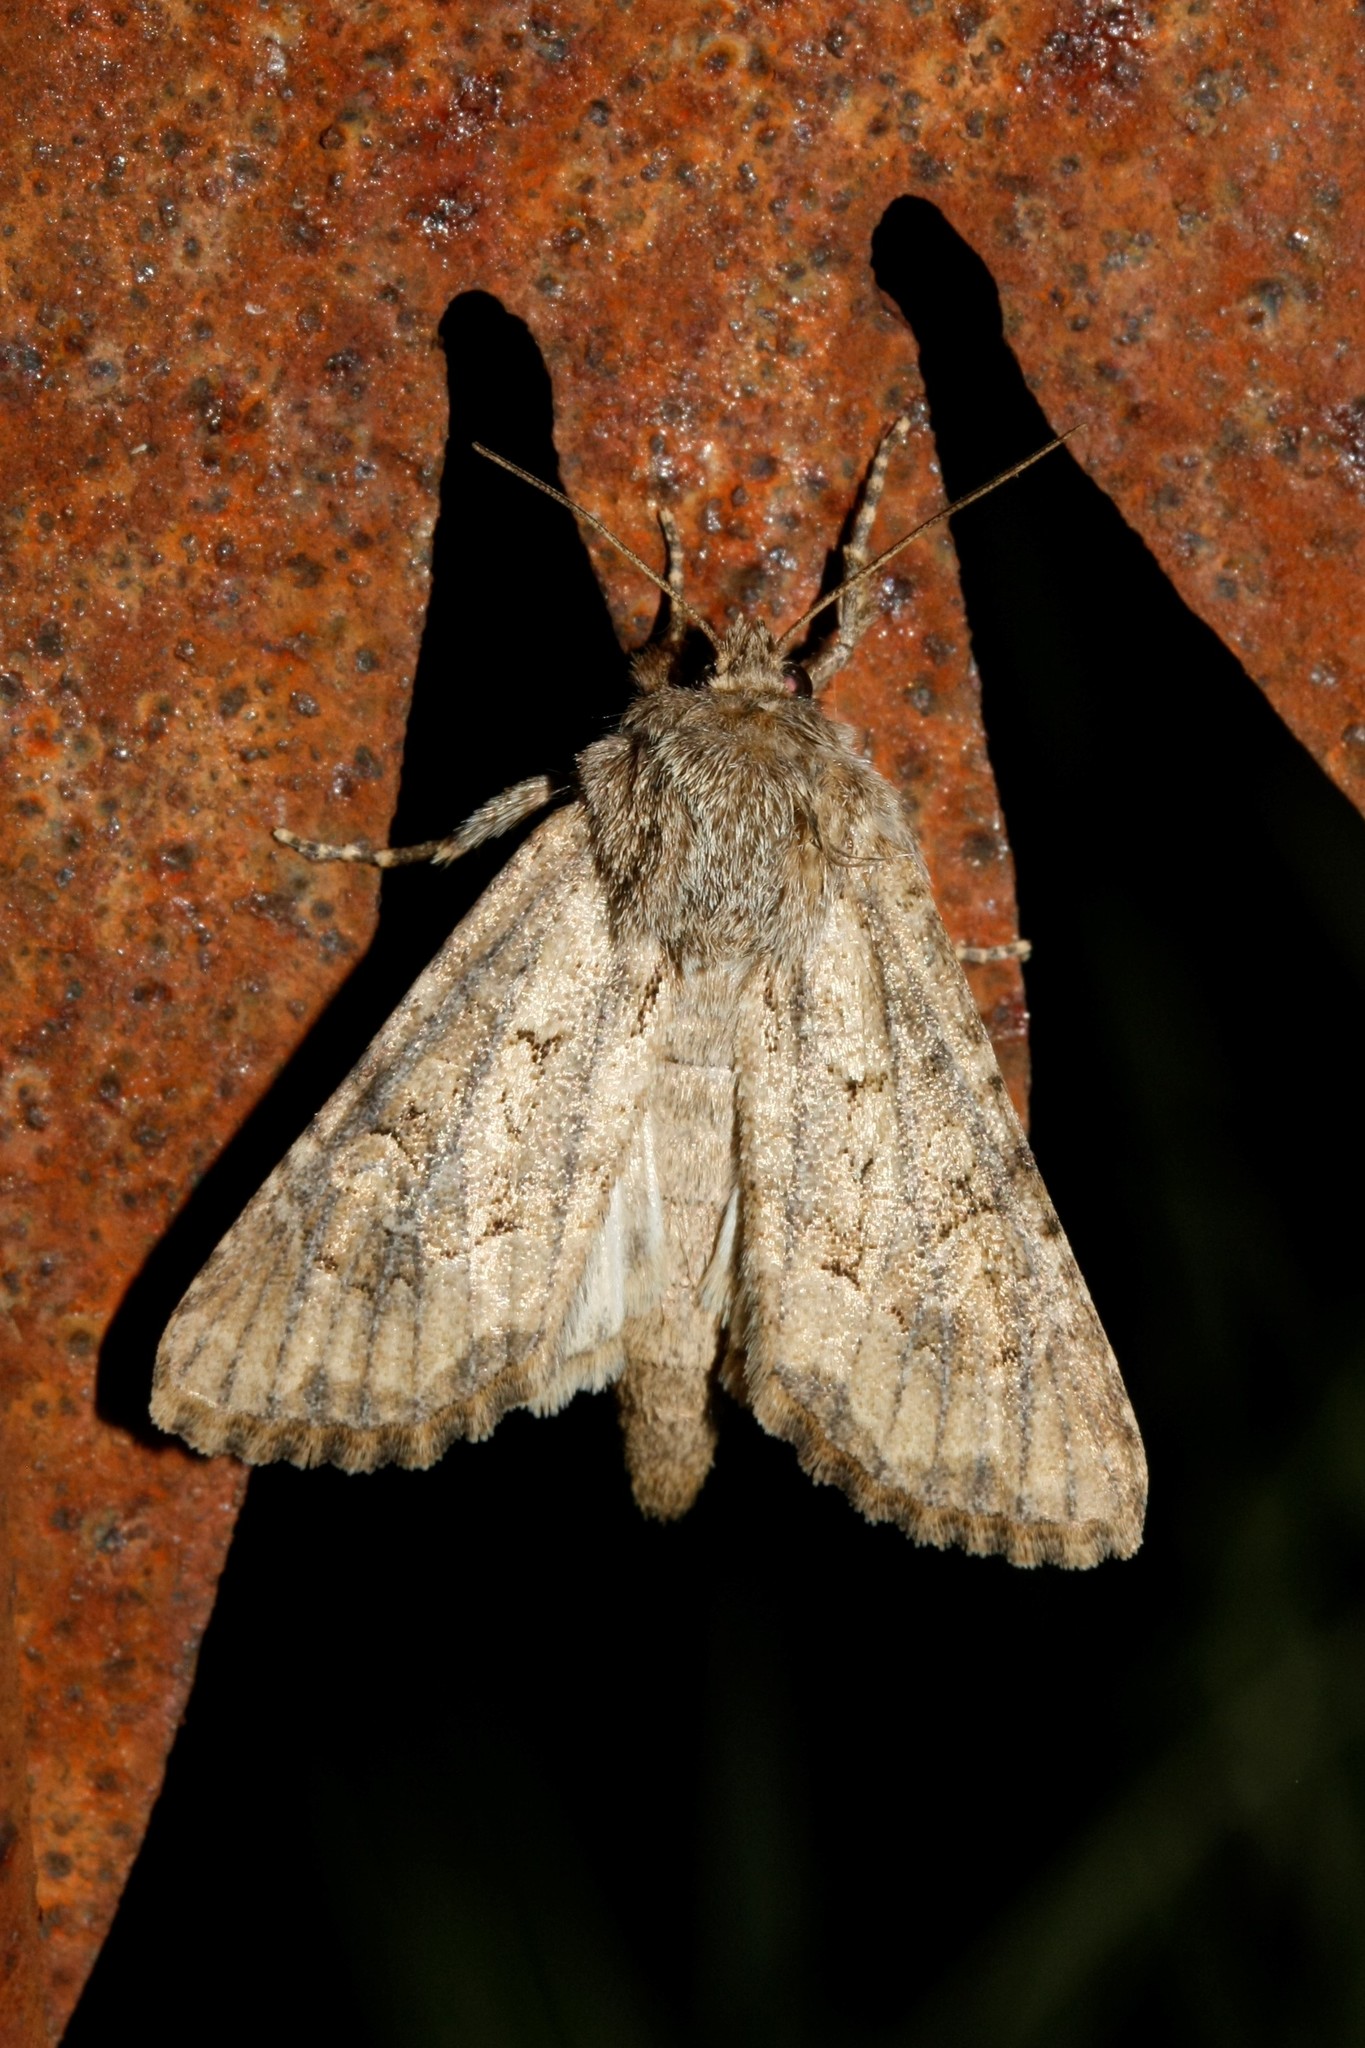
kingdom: Animalia
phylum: Arthropoda
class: Insecta
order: Lepidoptera
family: Noctuidae
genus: Luperina
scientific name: Luperina testacea
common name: Flounced rustic
